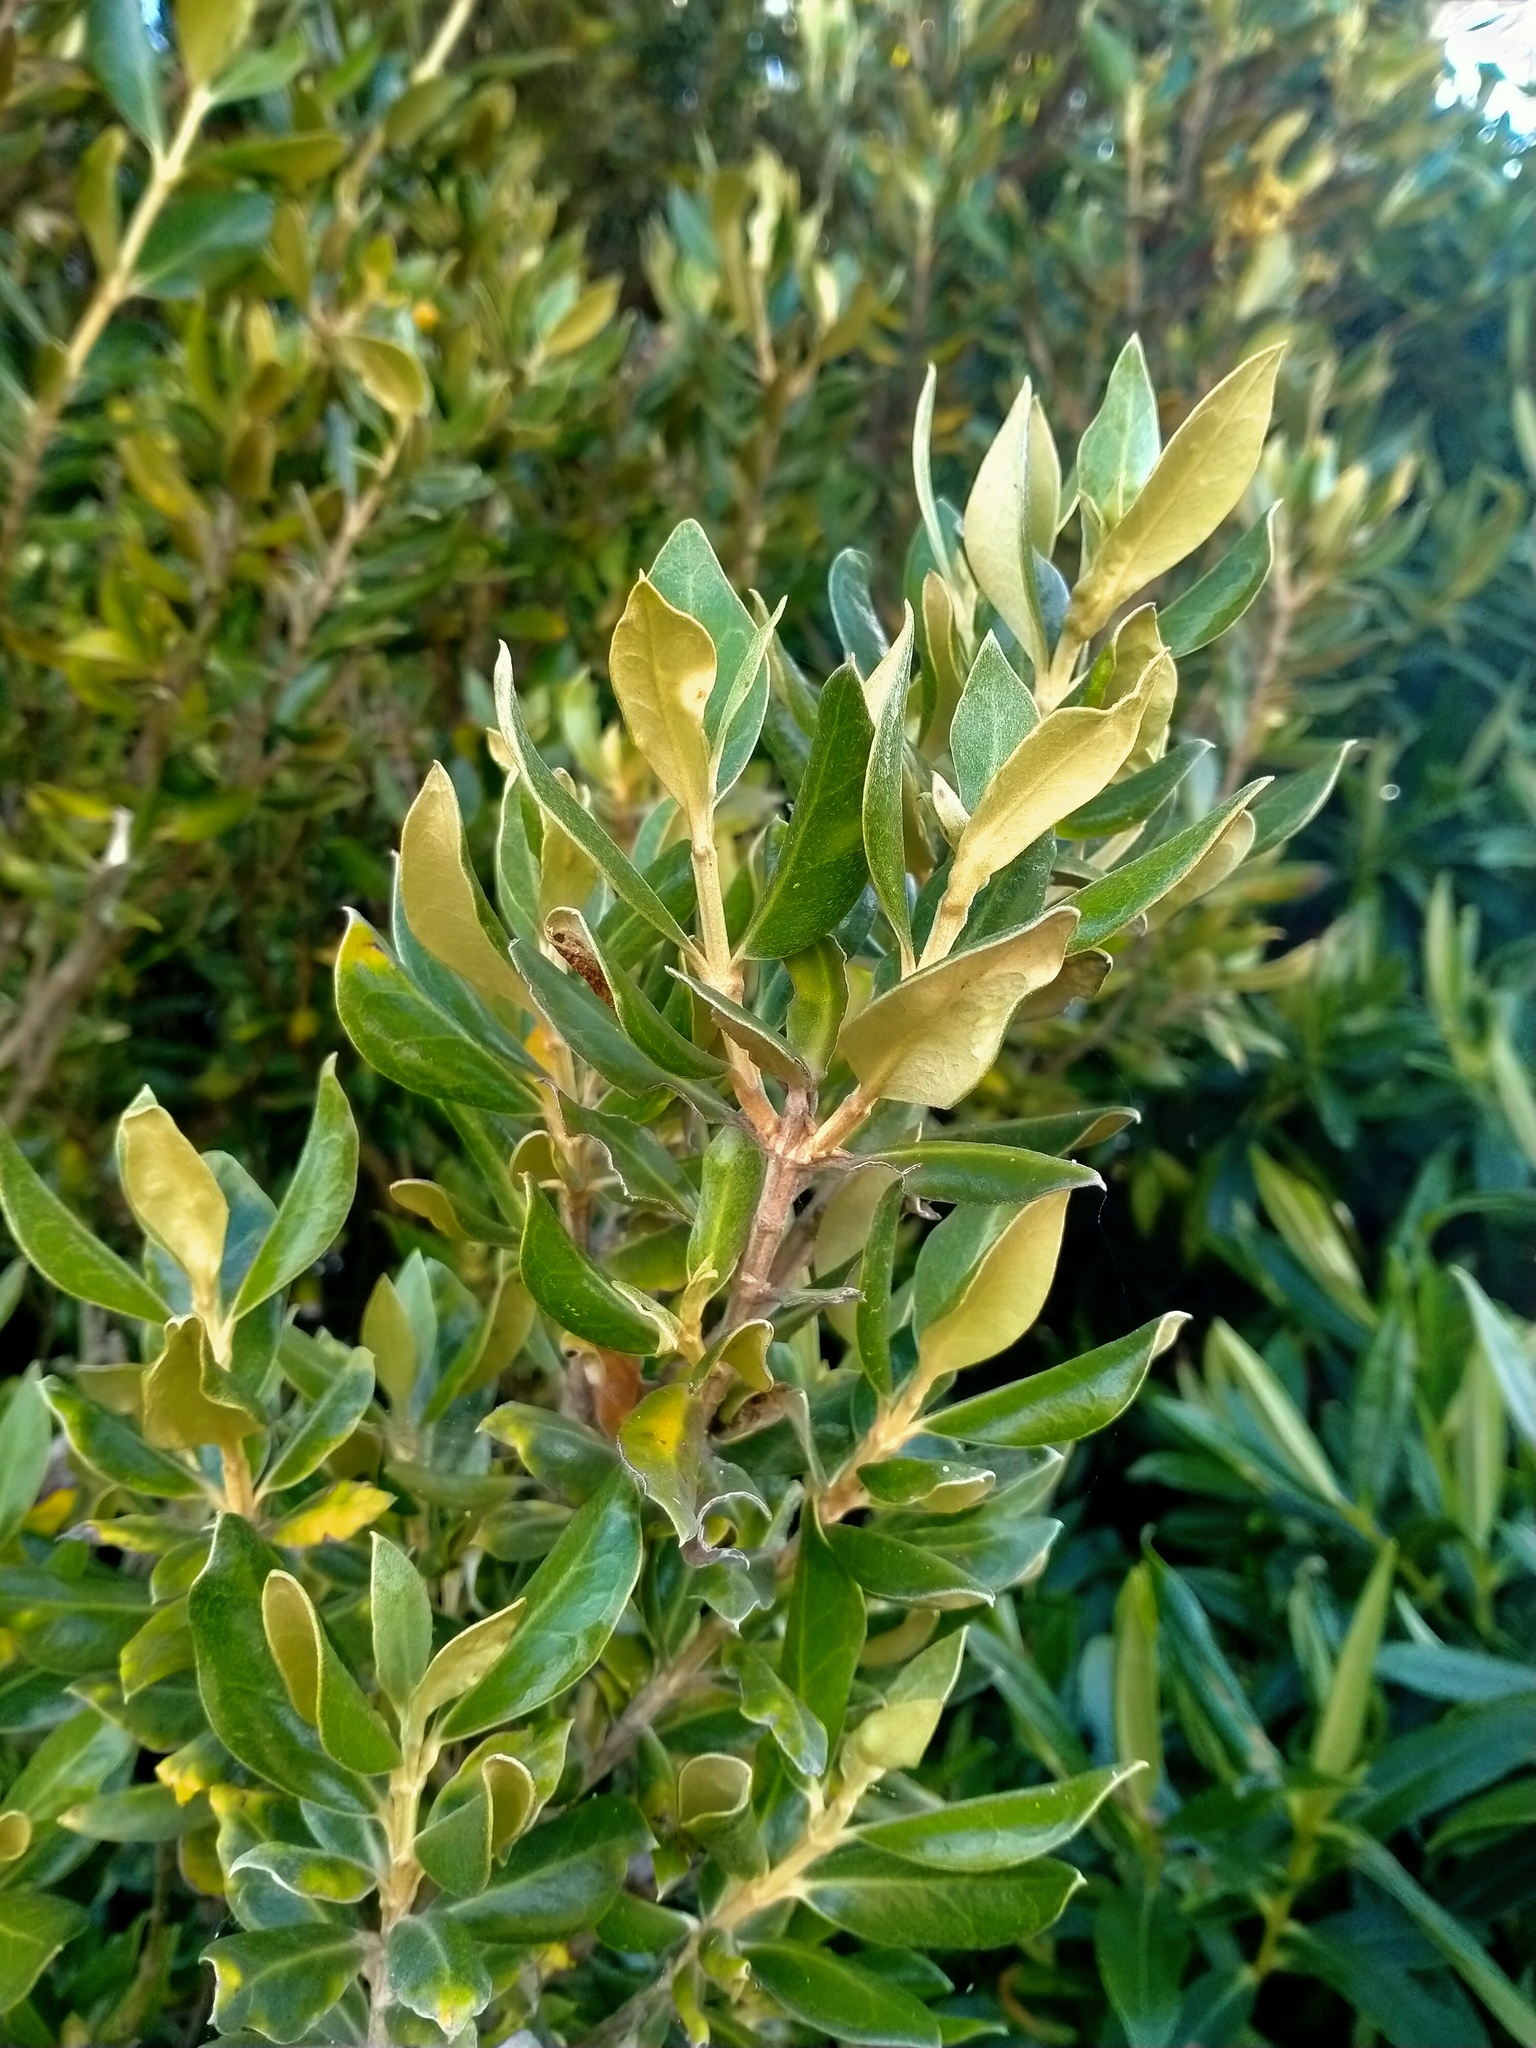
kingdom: Plantae
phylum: Tracheophyta
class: Magnoliopsida
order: Asterales
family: Asteraceae
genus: Olearia
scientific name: Olearia traversiorum
